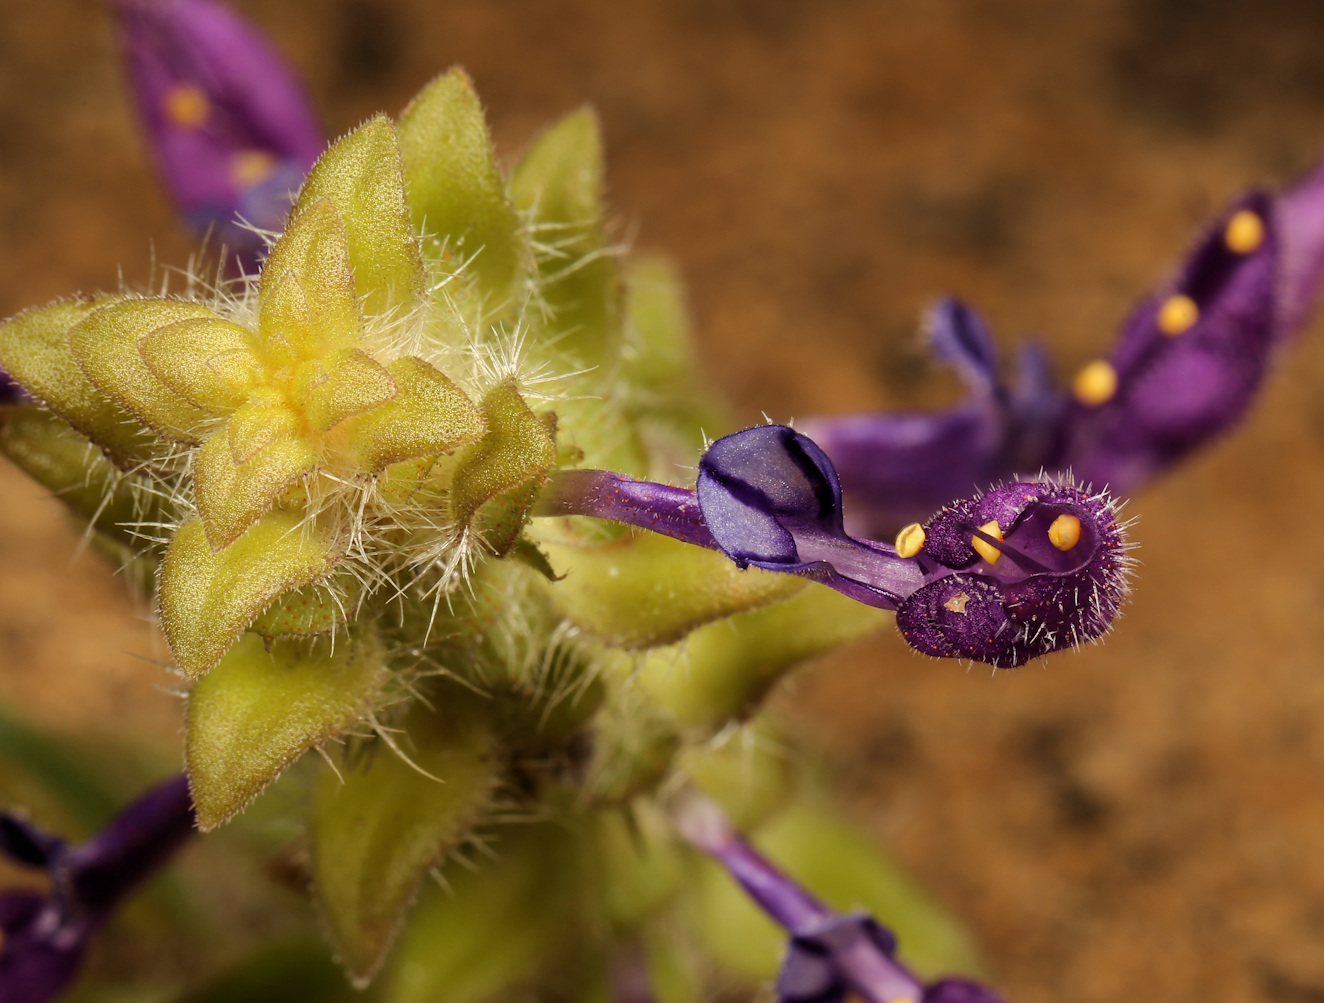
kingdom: Plantae
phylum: Tracheophyta
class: Magnoliopsida
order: Lamiales
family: Lamiaceae
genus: Coleus
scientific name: Coleus lasianthus
